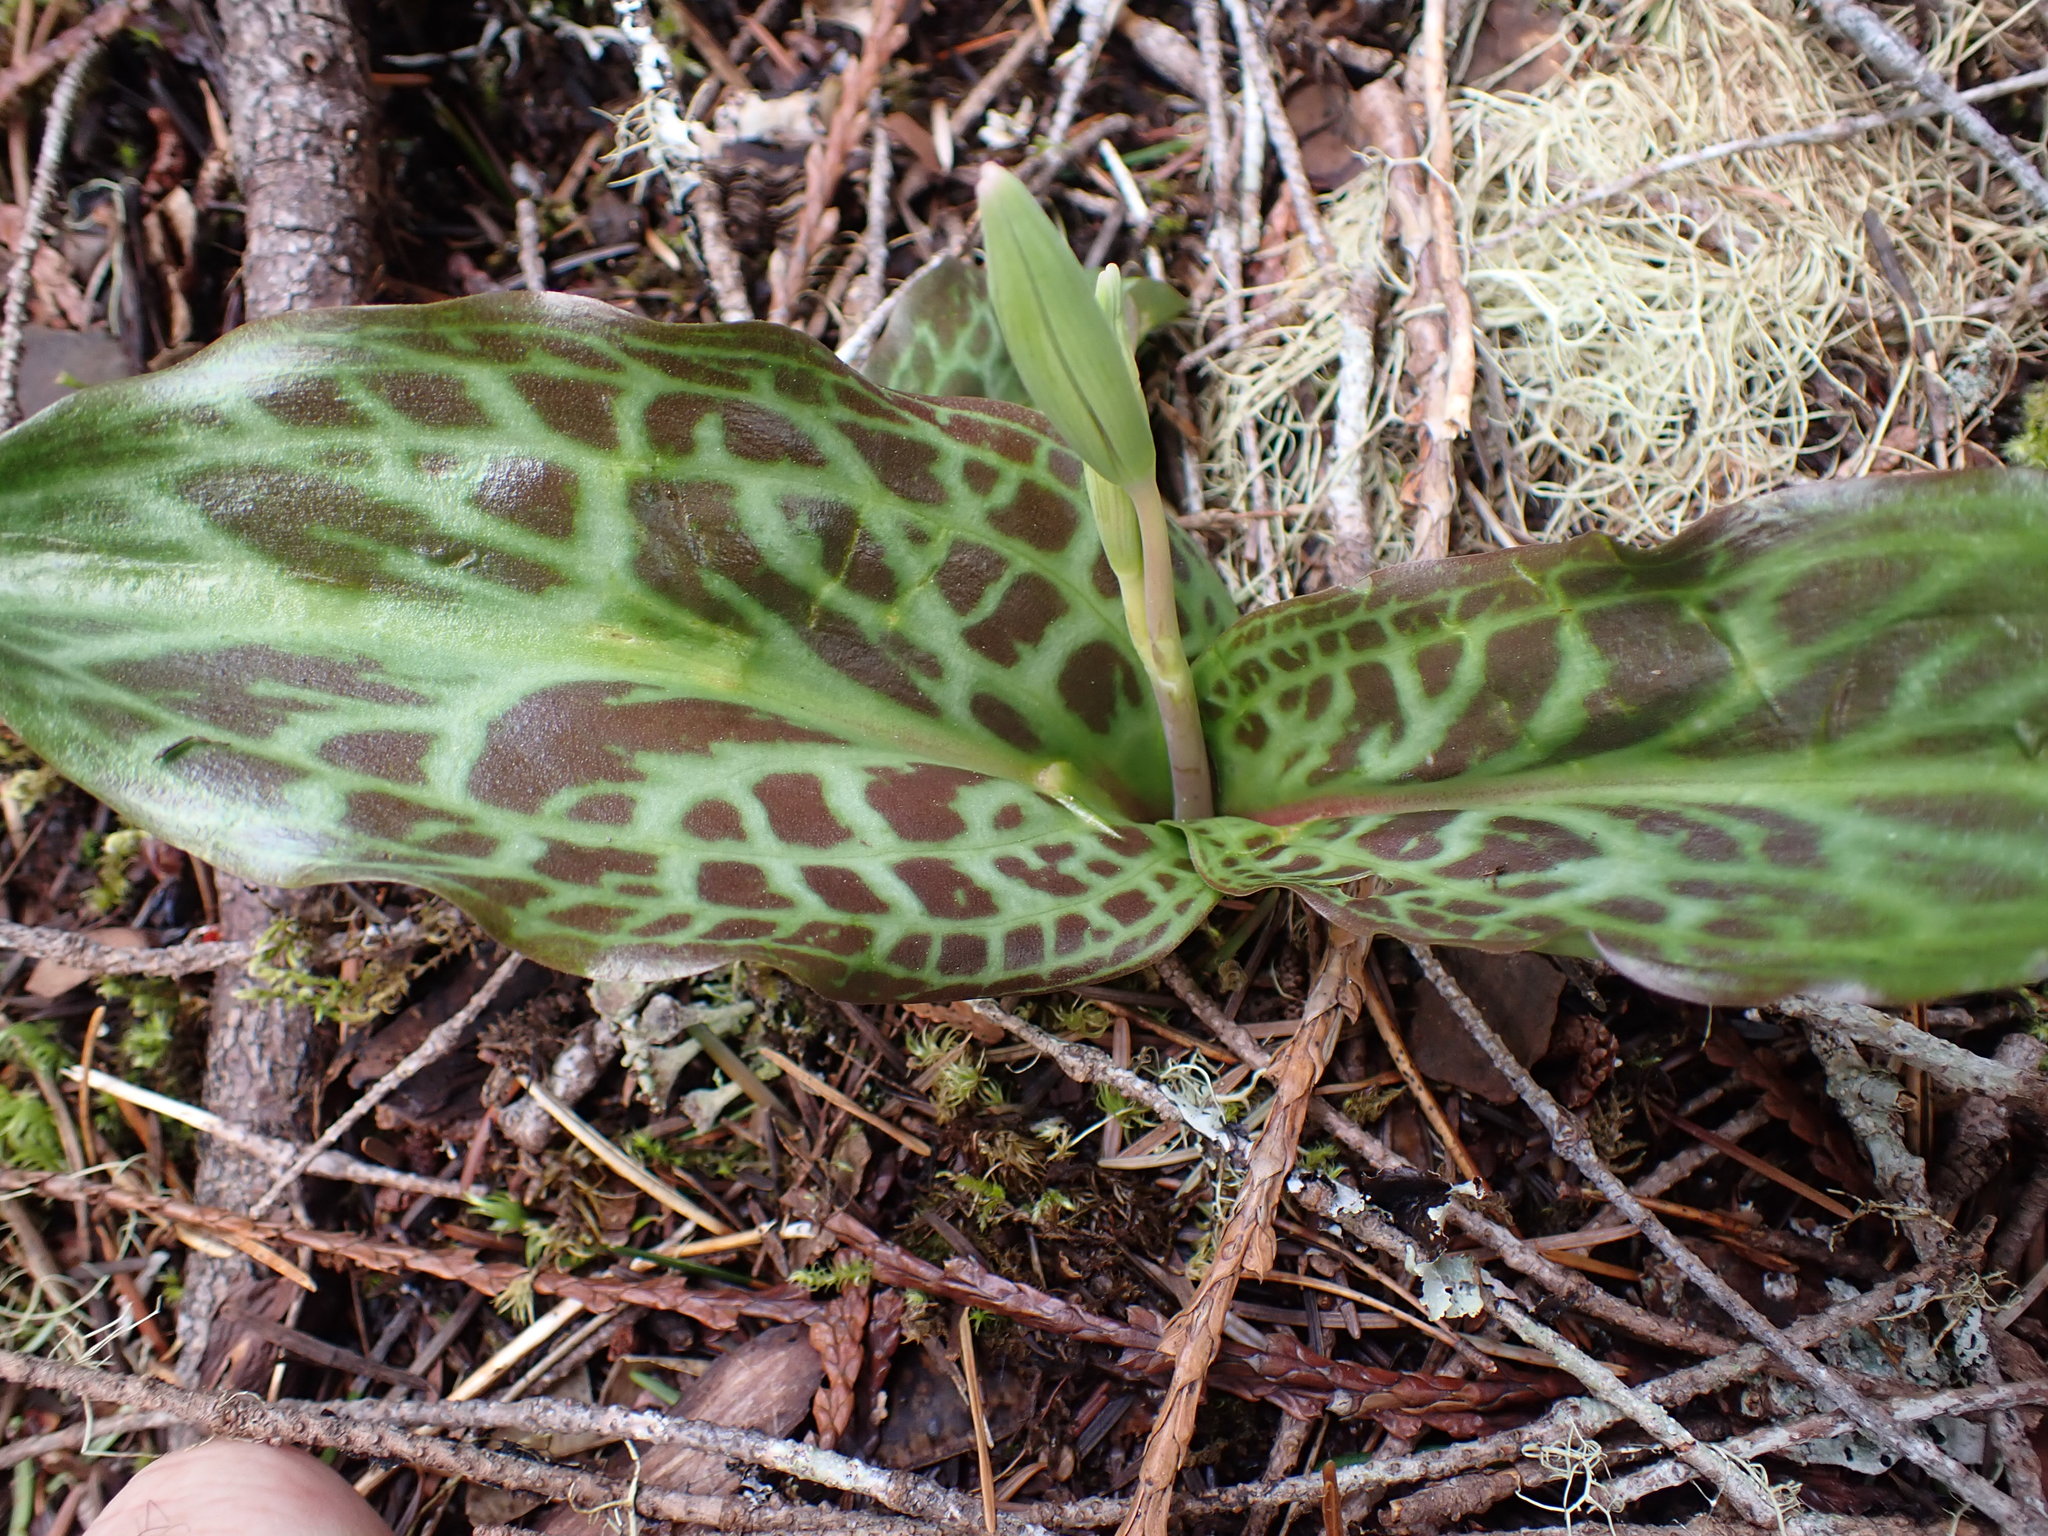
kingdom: Plantae
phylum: Tracheophyta
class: Liliopsida
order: Liliales
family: Liliaceae
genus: Erythronium
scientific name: Erythronium oregonum
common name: Giant adder's-tongue
